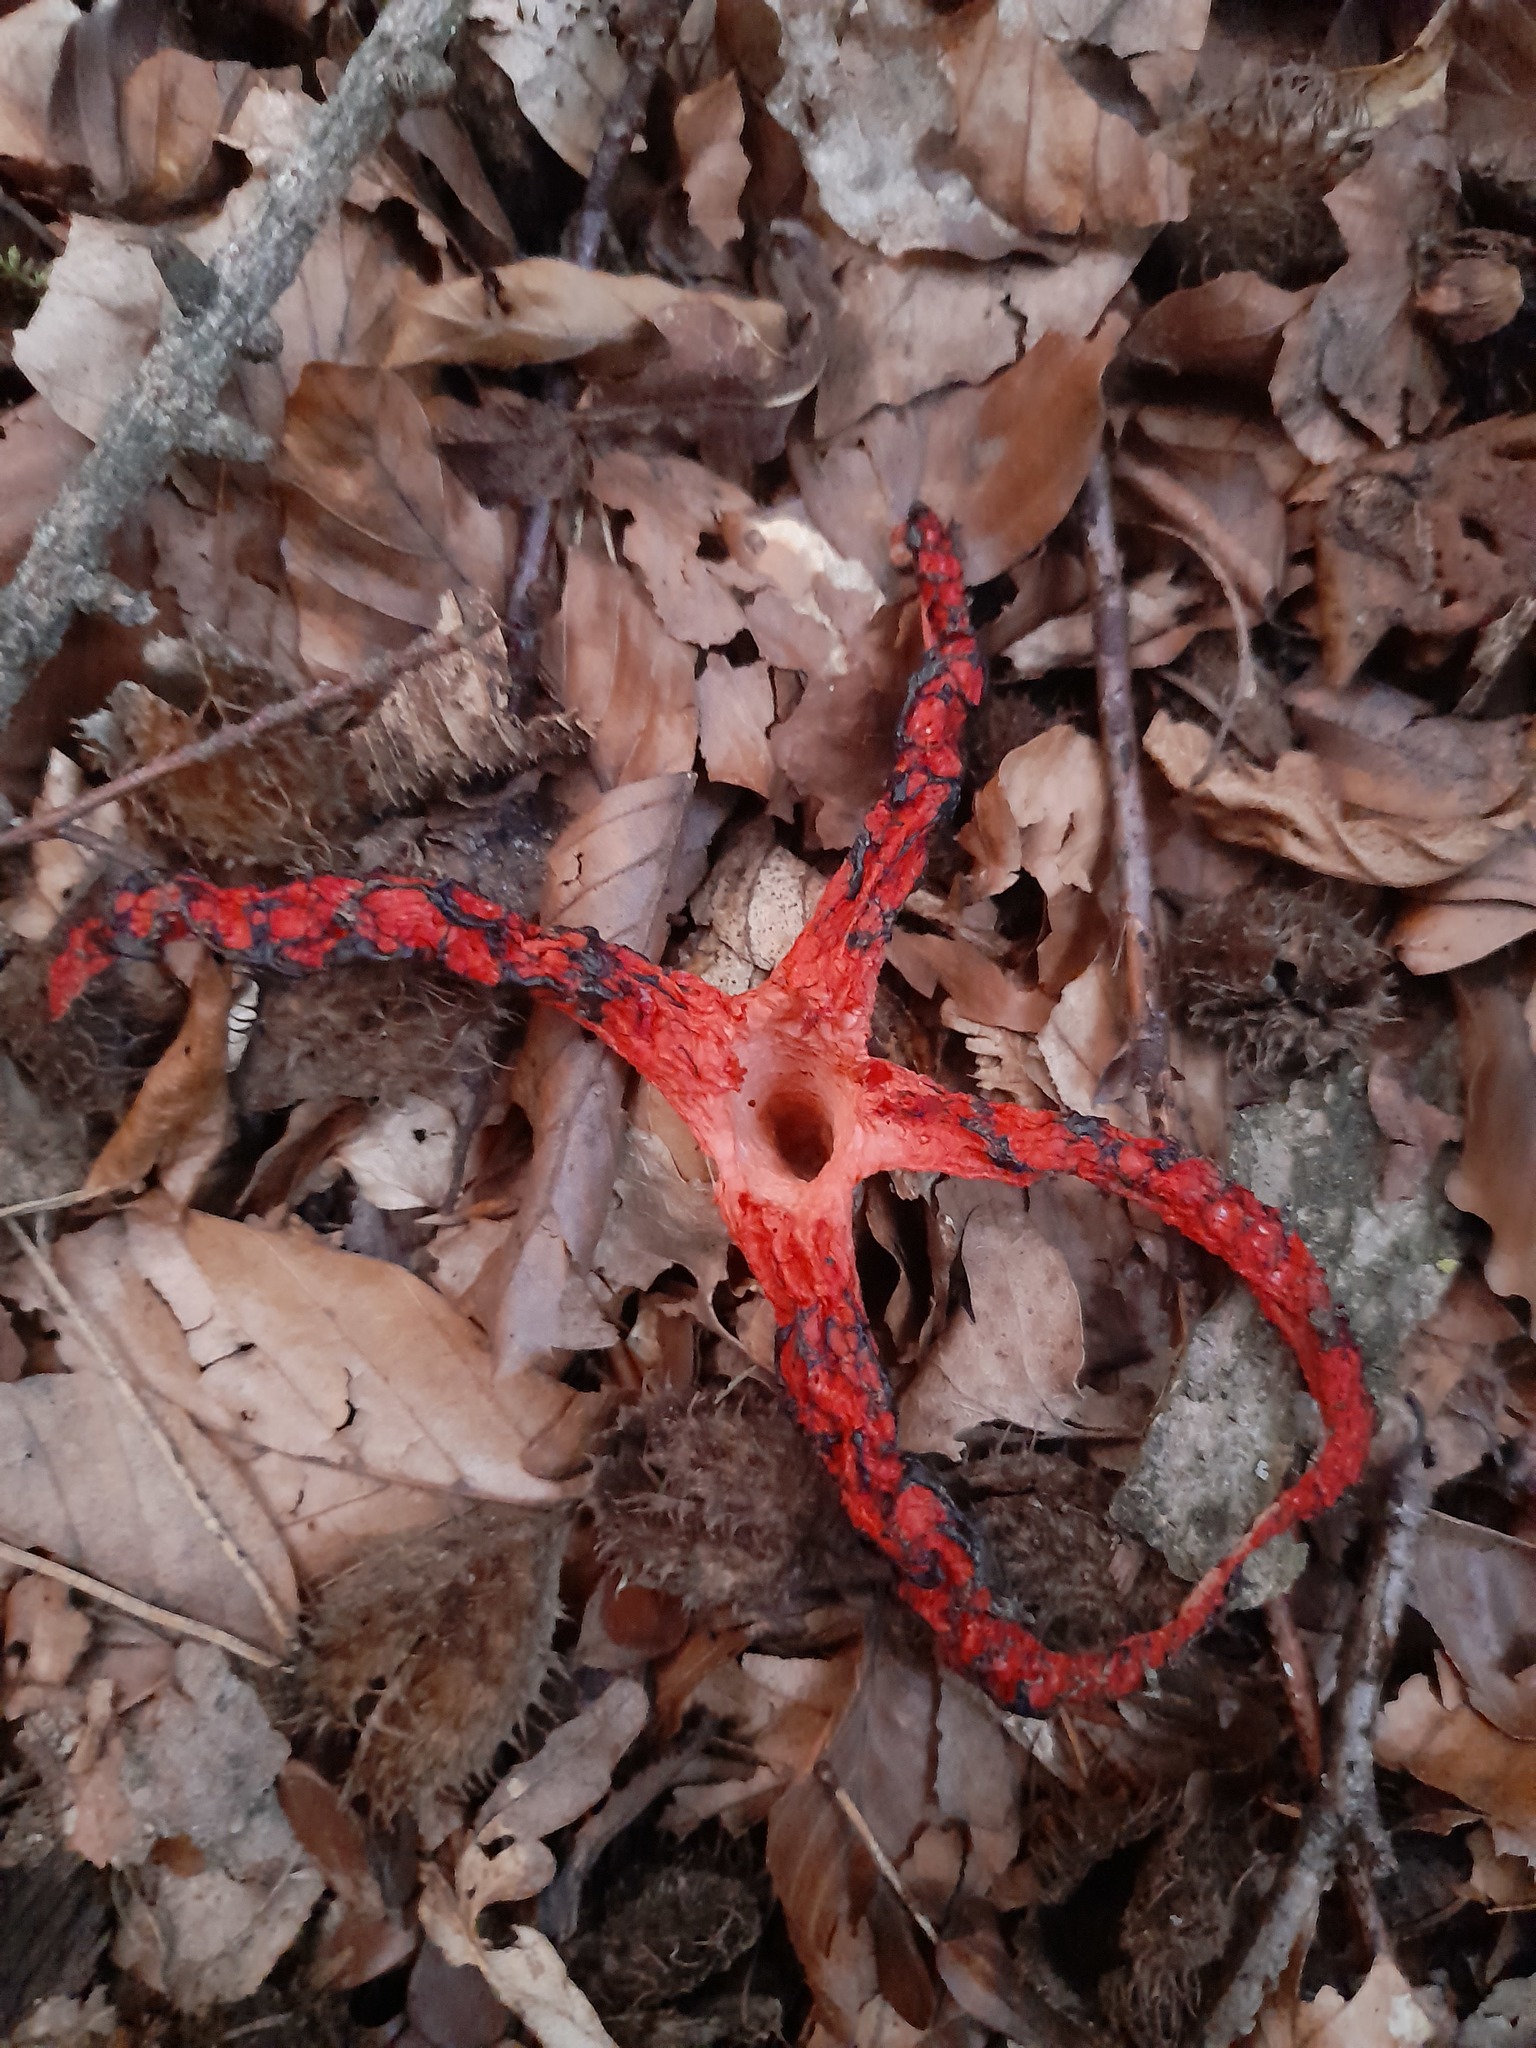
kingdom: Fungi
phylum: Basidiomycota
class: Agaricomycetes
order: Phallales
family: Phallaceae
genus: Clathrus
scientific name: Clathrus archeri
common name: Devil's fingers
